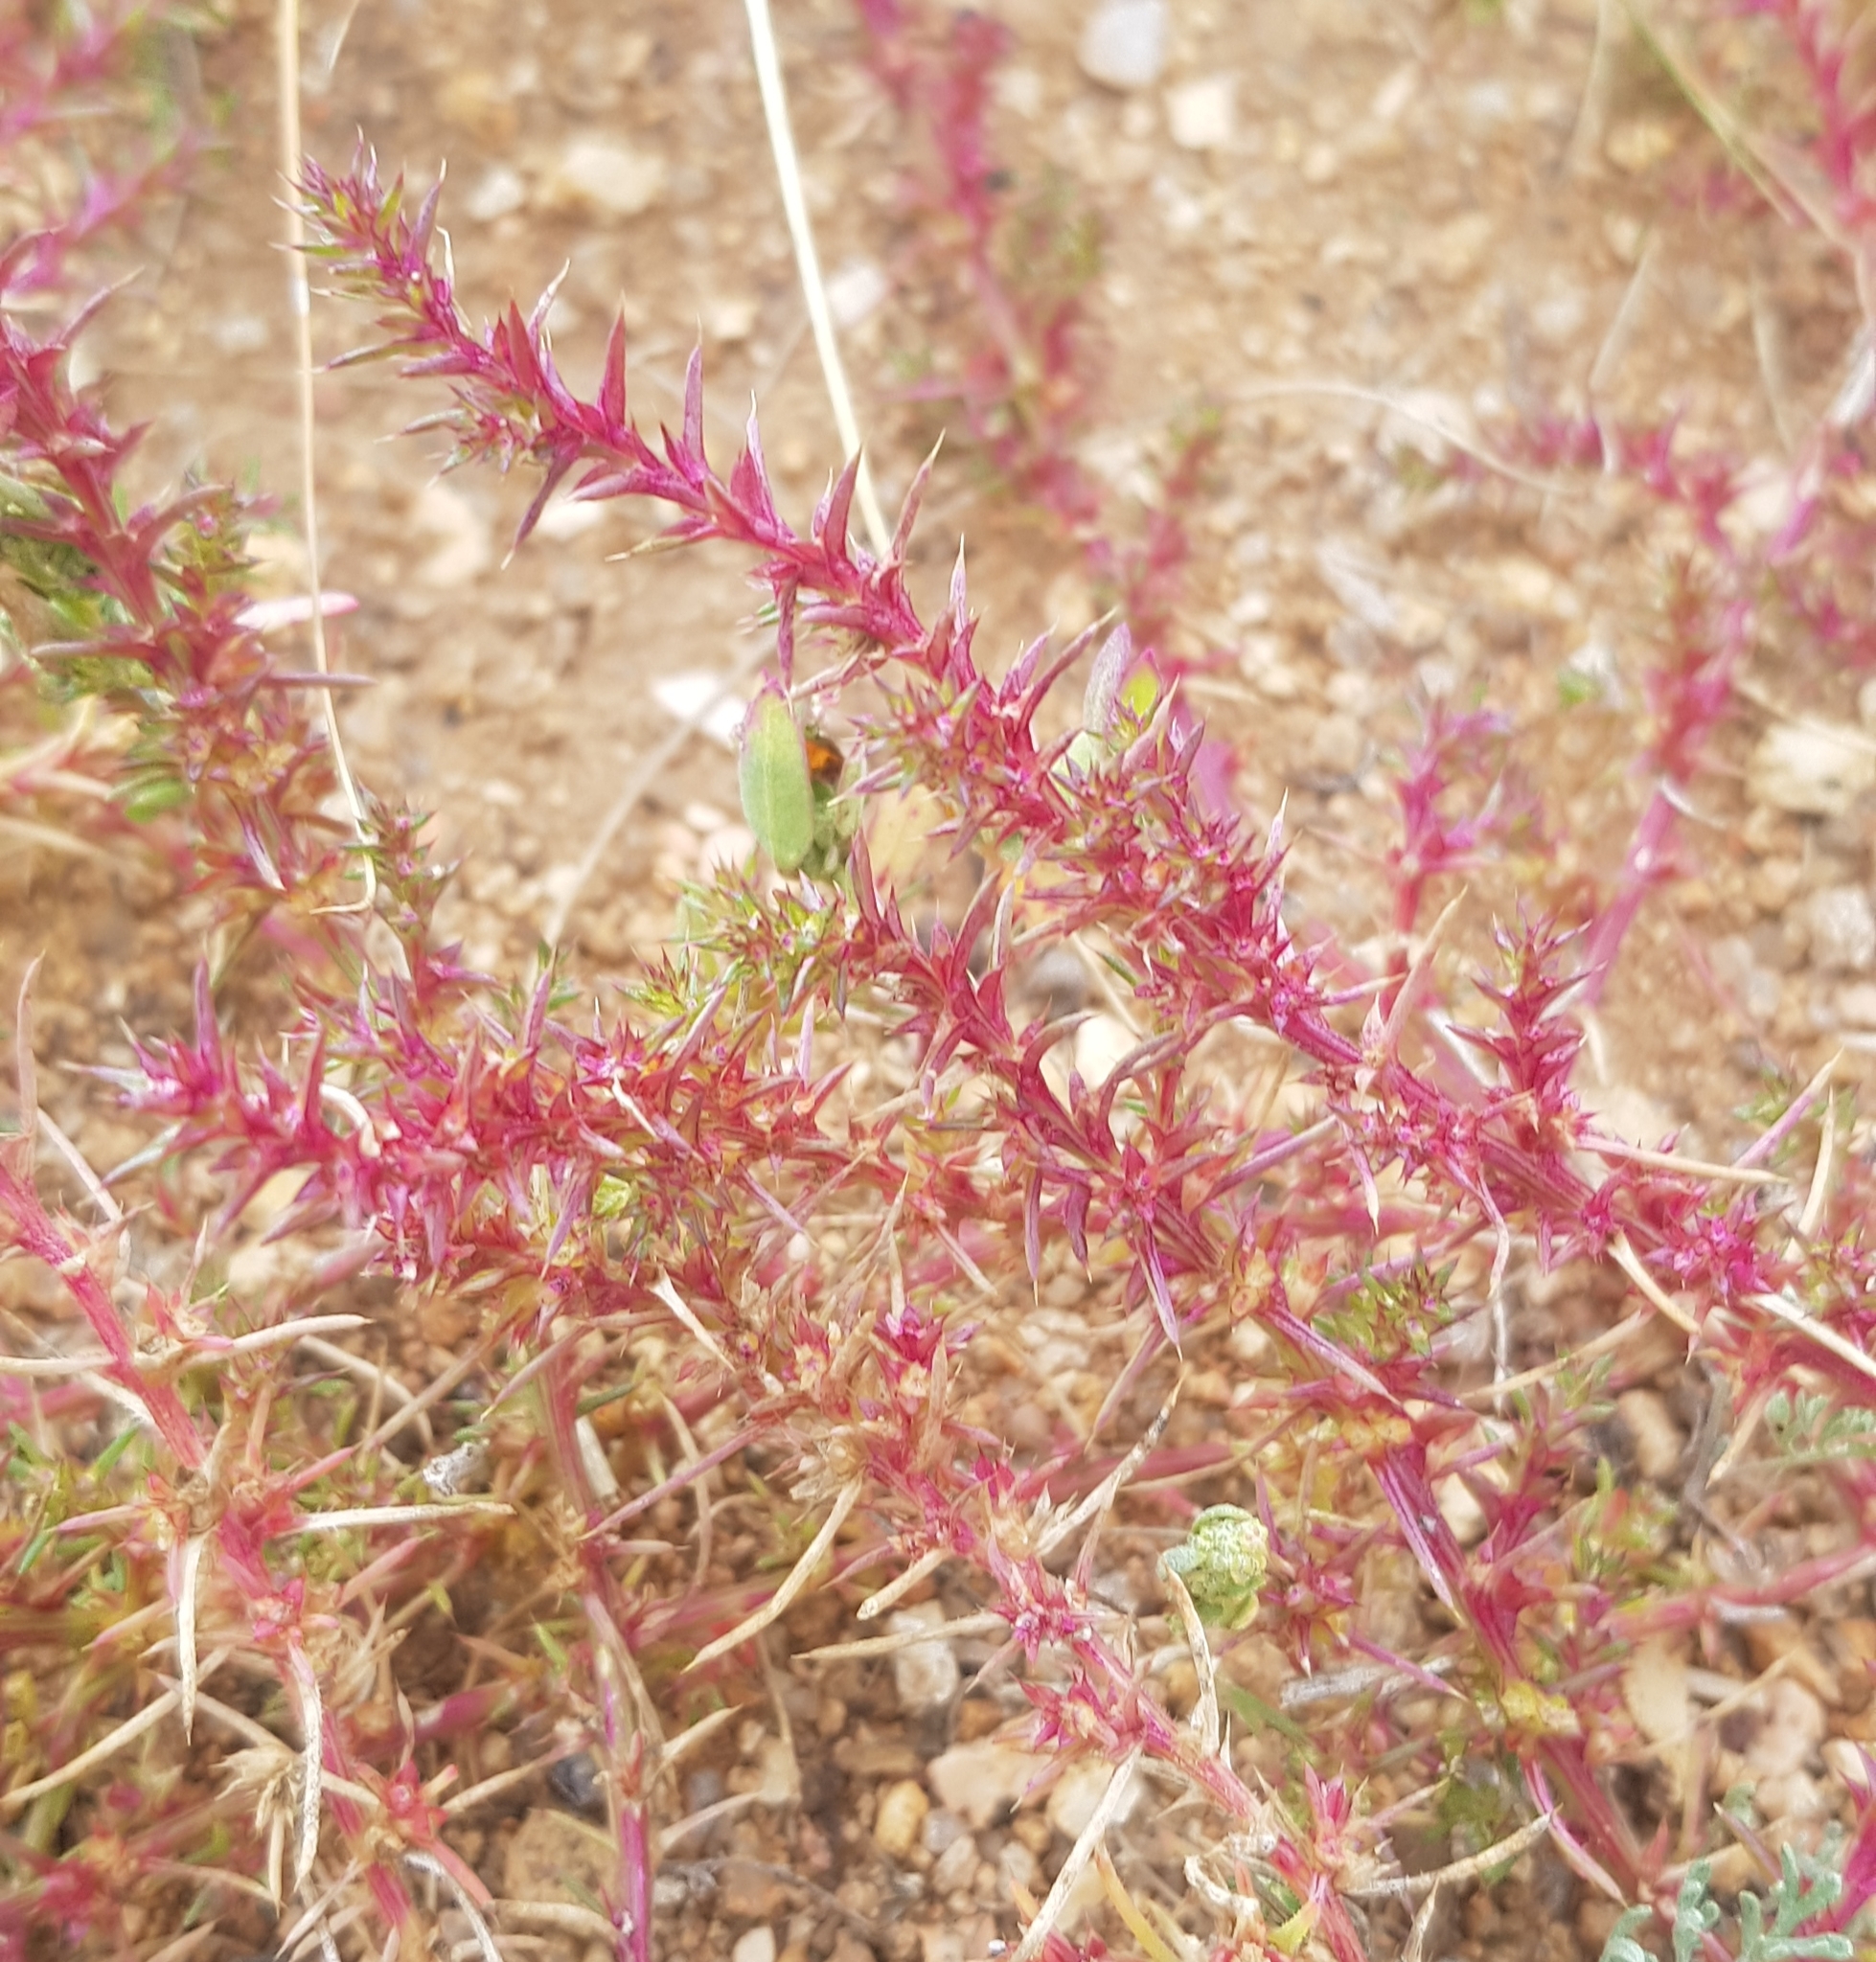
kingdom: Plantae
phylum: Tracheophyta
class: Magnoliopsida
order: Caryophyllales
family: Amaranthaceae
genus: Salsola
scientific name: Salsola collina
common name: Tumbleweed
